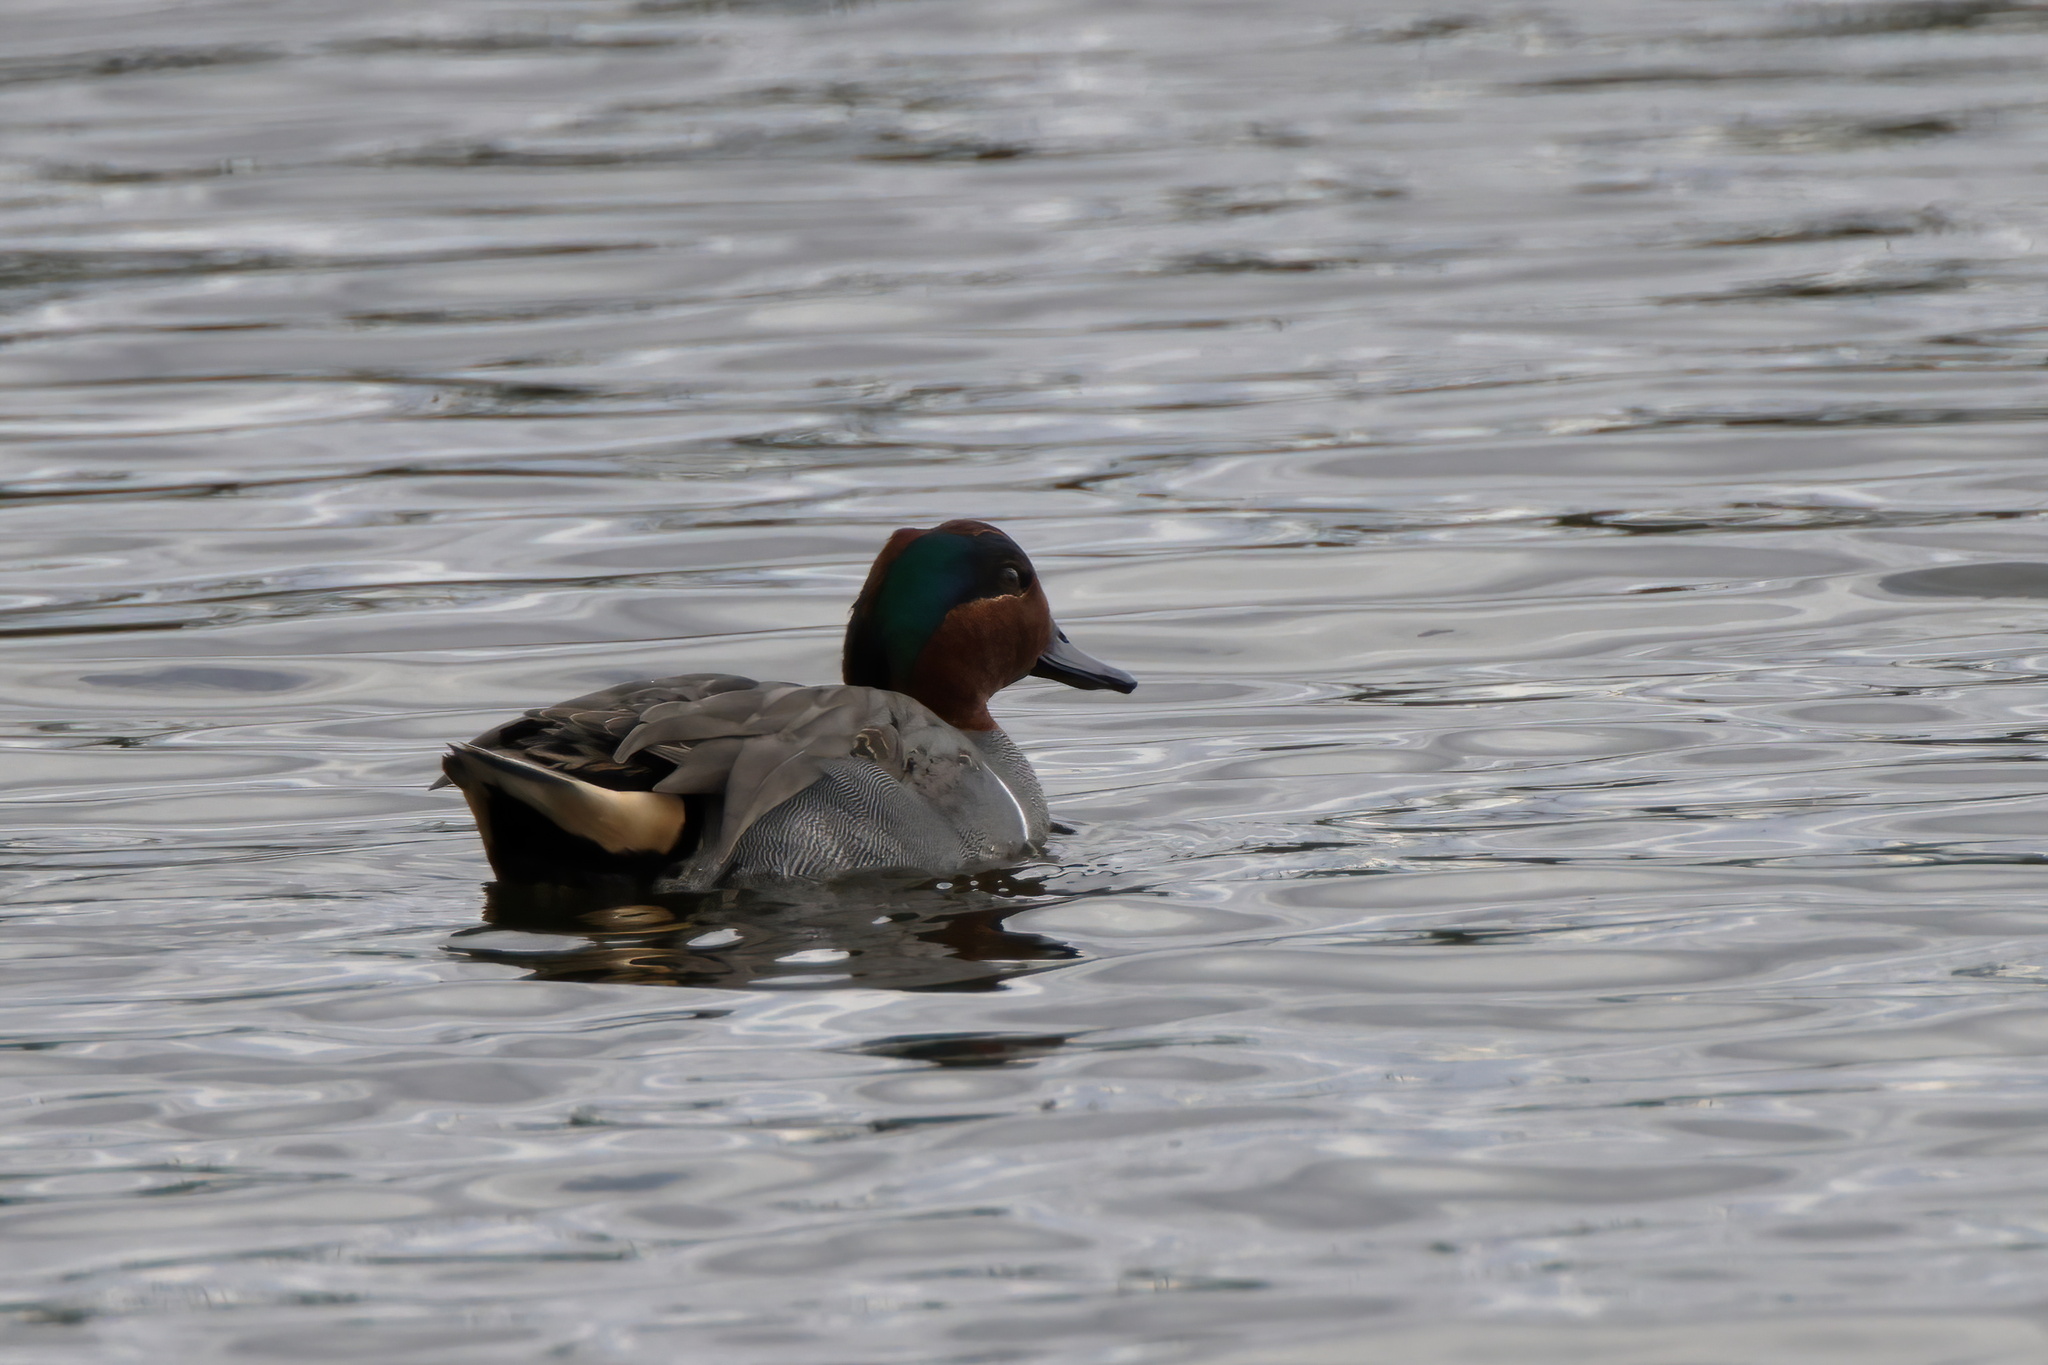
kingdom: Animalia
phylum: Chordata
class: Aves
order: Anseriformes
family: Anatidae
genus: Anas
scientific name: Anas crecca
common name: Eurasian teal
